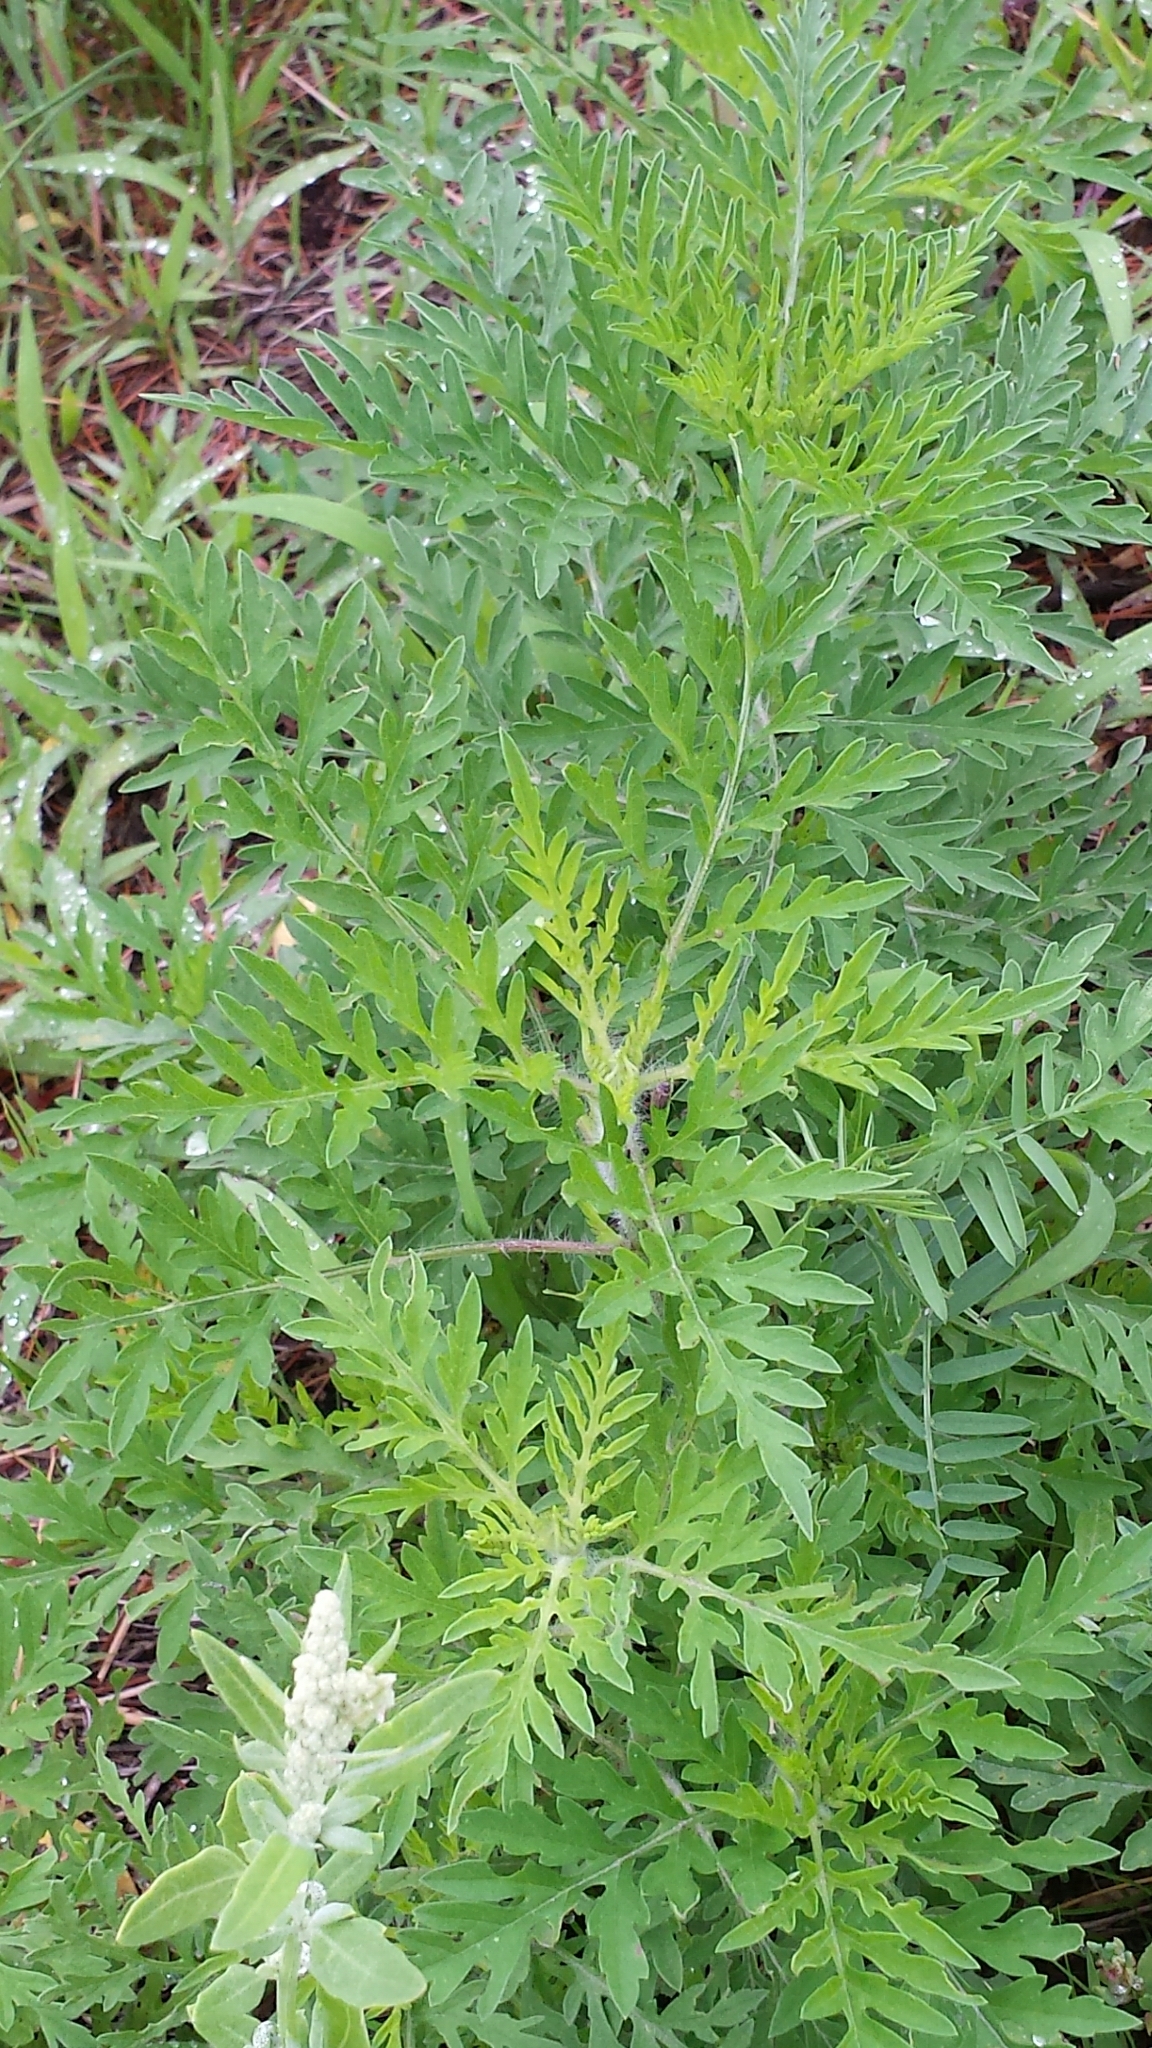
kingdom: Plantae
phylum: Tracheophyta
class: Magnoliopsida
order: Asterales
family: Asteraceae
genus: Ambrosia
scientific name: Ambrosia artemisiifolia
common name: Annual ragweed
